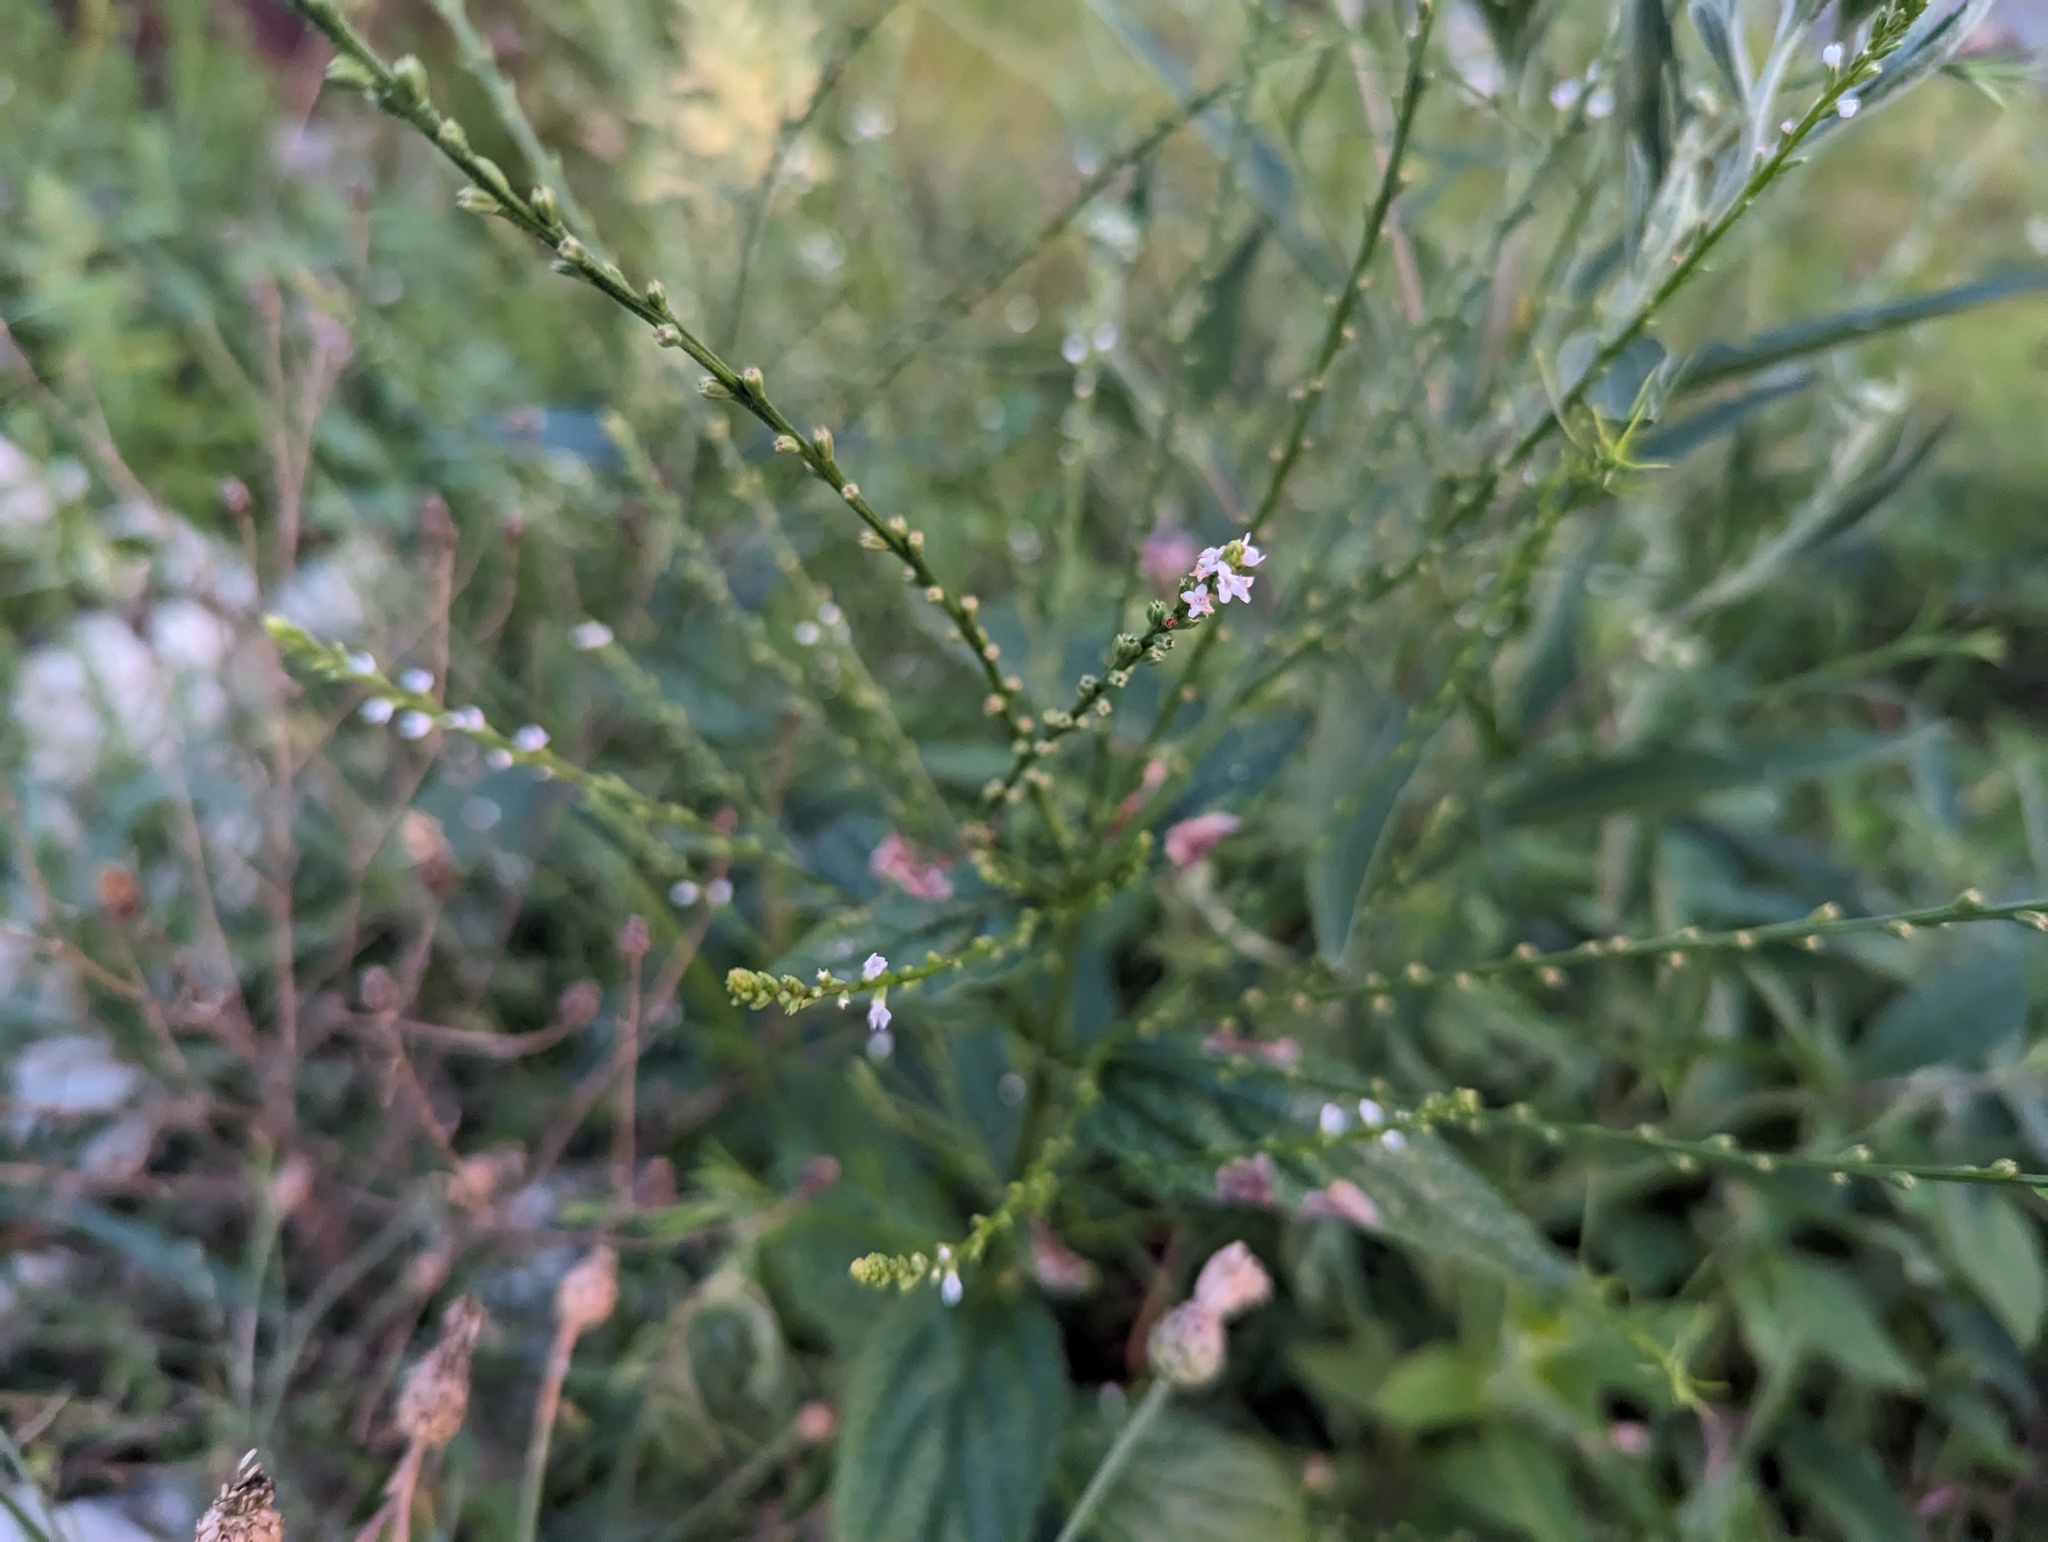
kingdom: Plantae
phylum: Tracheophyta
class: Magnoliopsida
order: Lamiales
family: Verbenaceae
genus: Verbena
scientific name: Verbena urticifolia
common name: Nettle-leaved vervain
